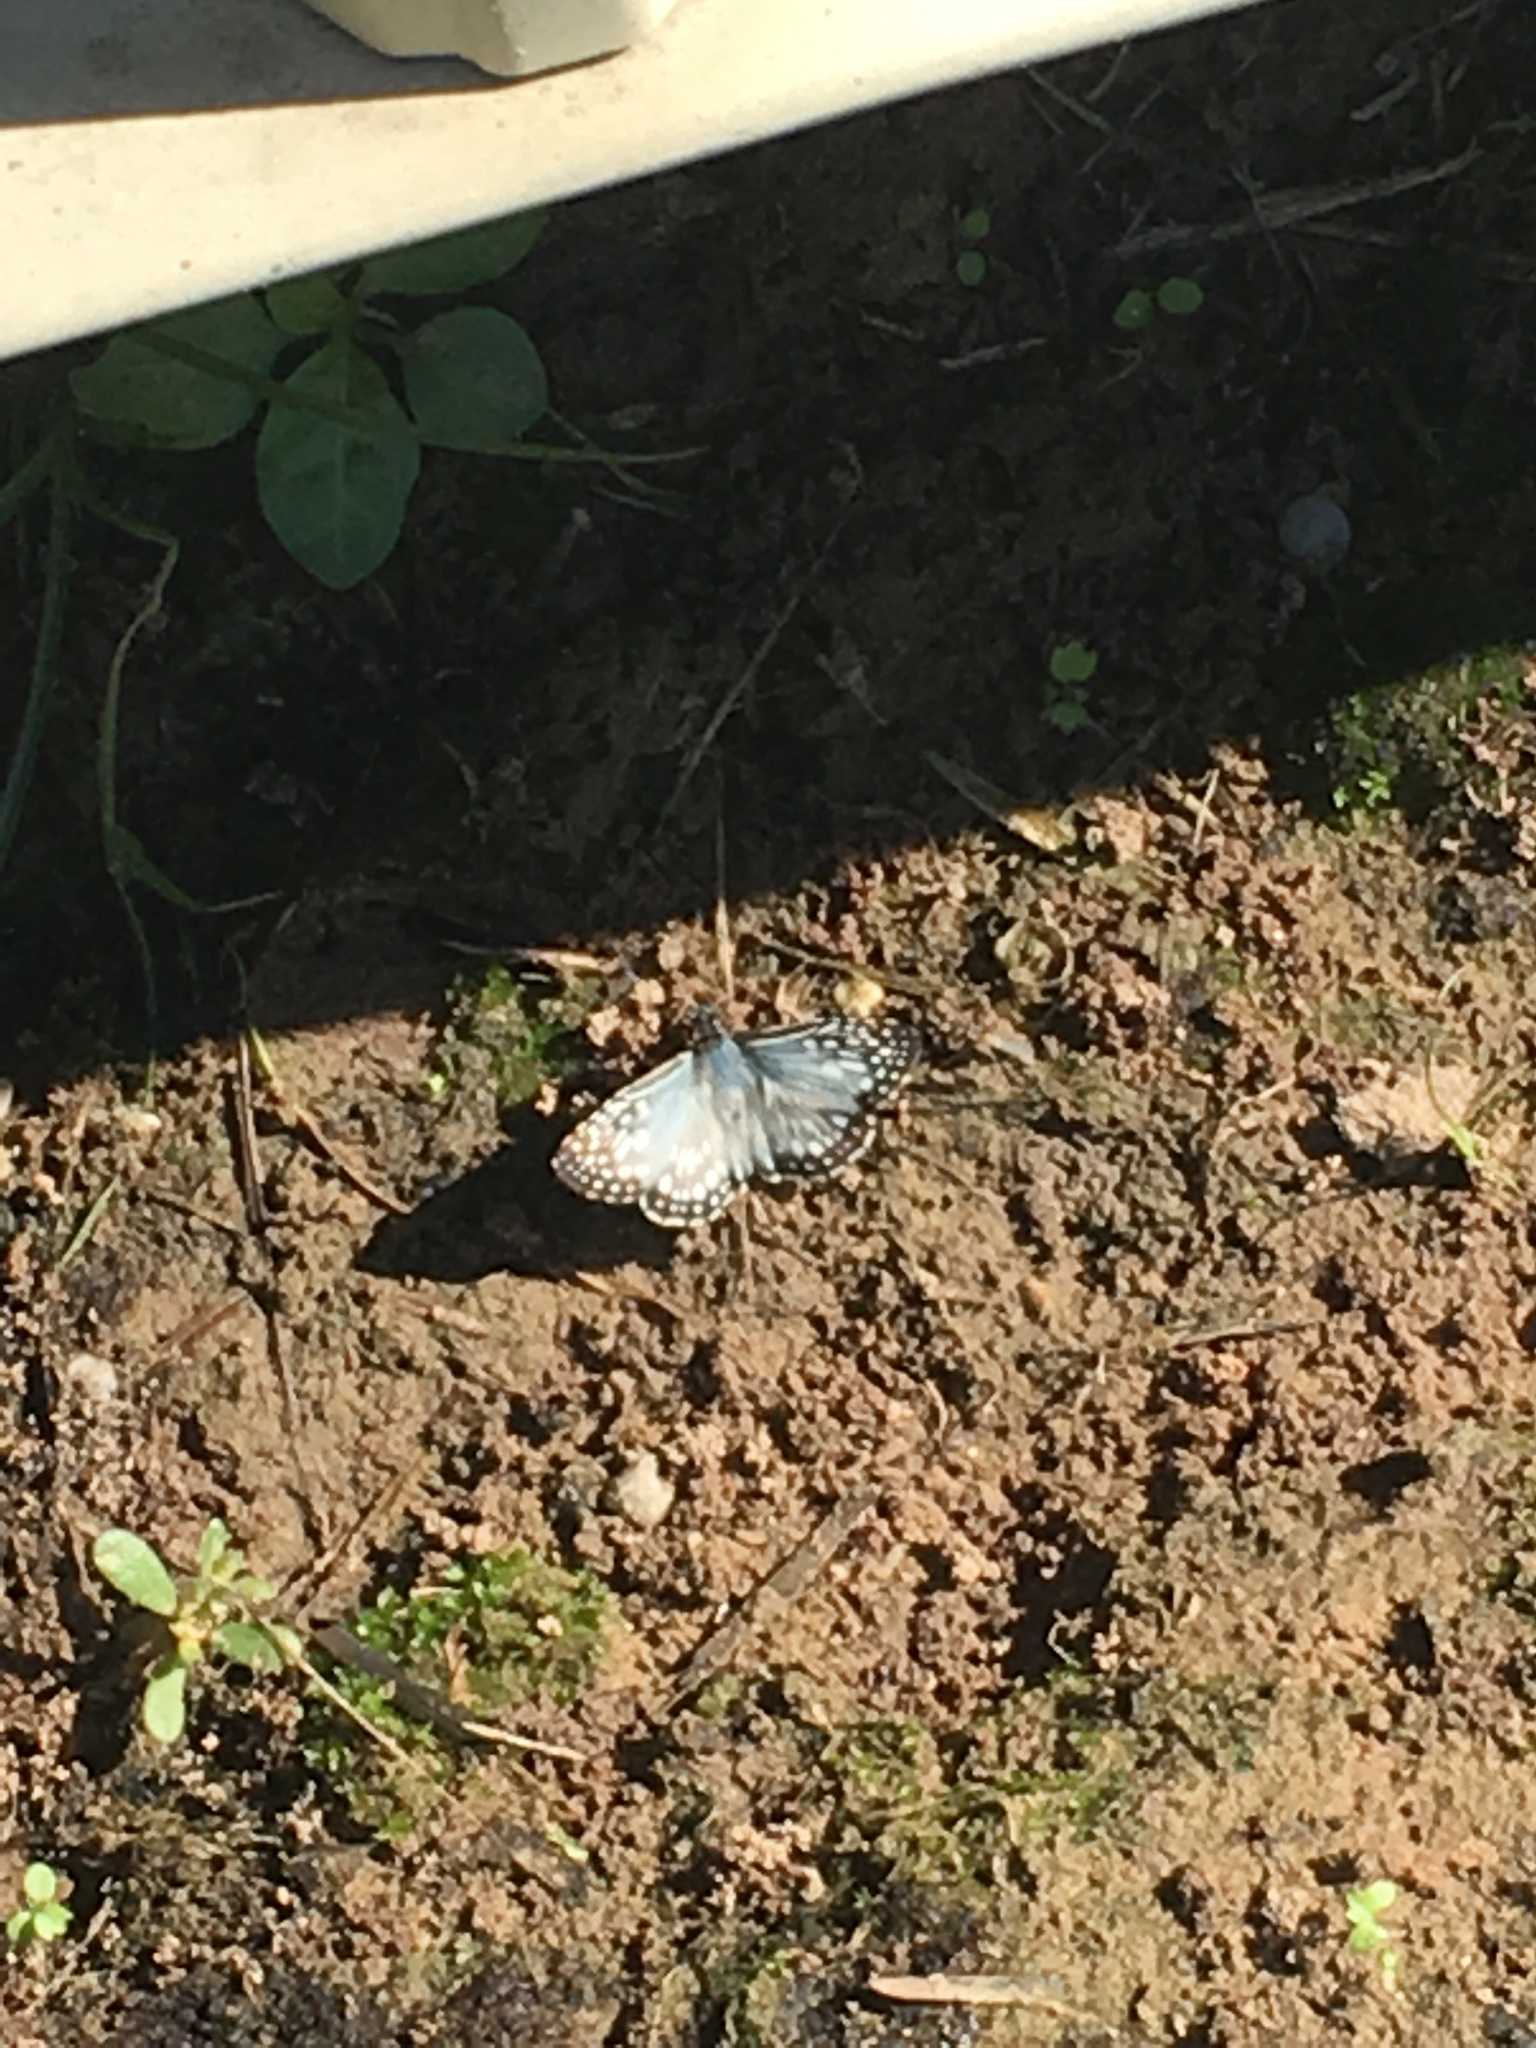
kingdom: Animalia
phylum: Arthropoda
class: Insecta
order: Lepidoptera
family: Hesperiidae
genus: Pyrgus
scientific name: Pyrgus oileus
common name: Tropical checkered-skipper
